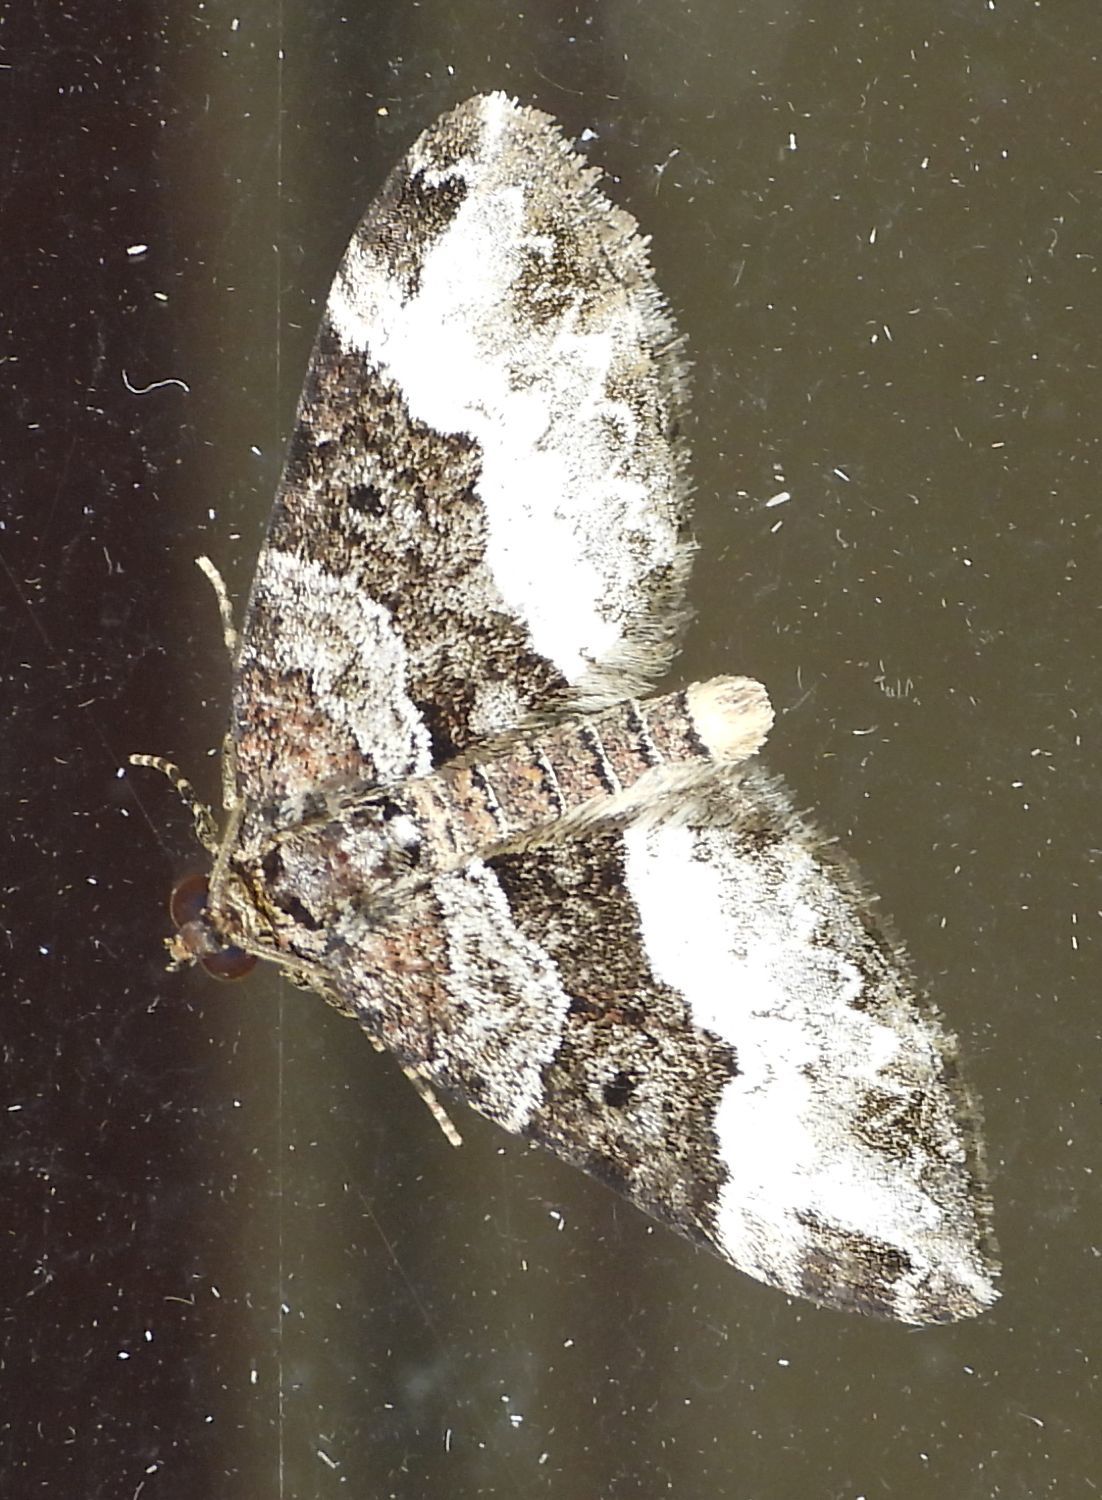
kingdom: Animalia
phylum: Arthropoda
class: Insecta
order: Lepidoptera
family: Geometridae
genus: Euphyia
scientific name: Euphyia intermediata
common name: Sharp-angled carpet
